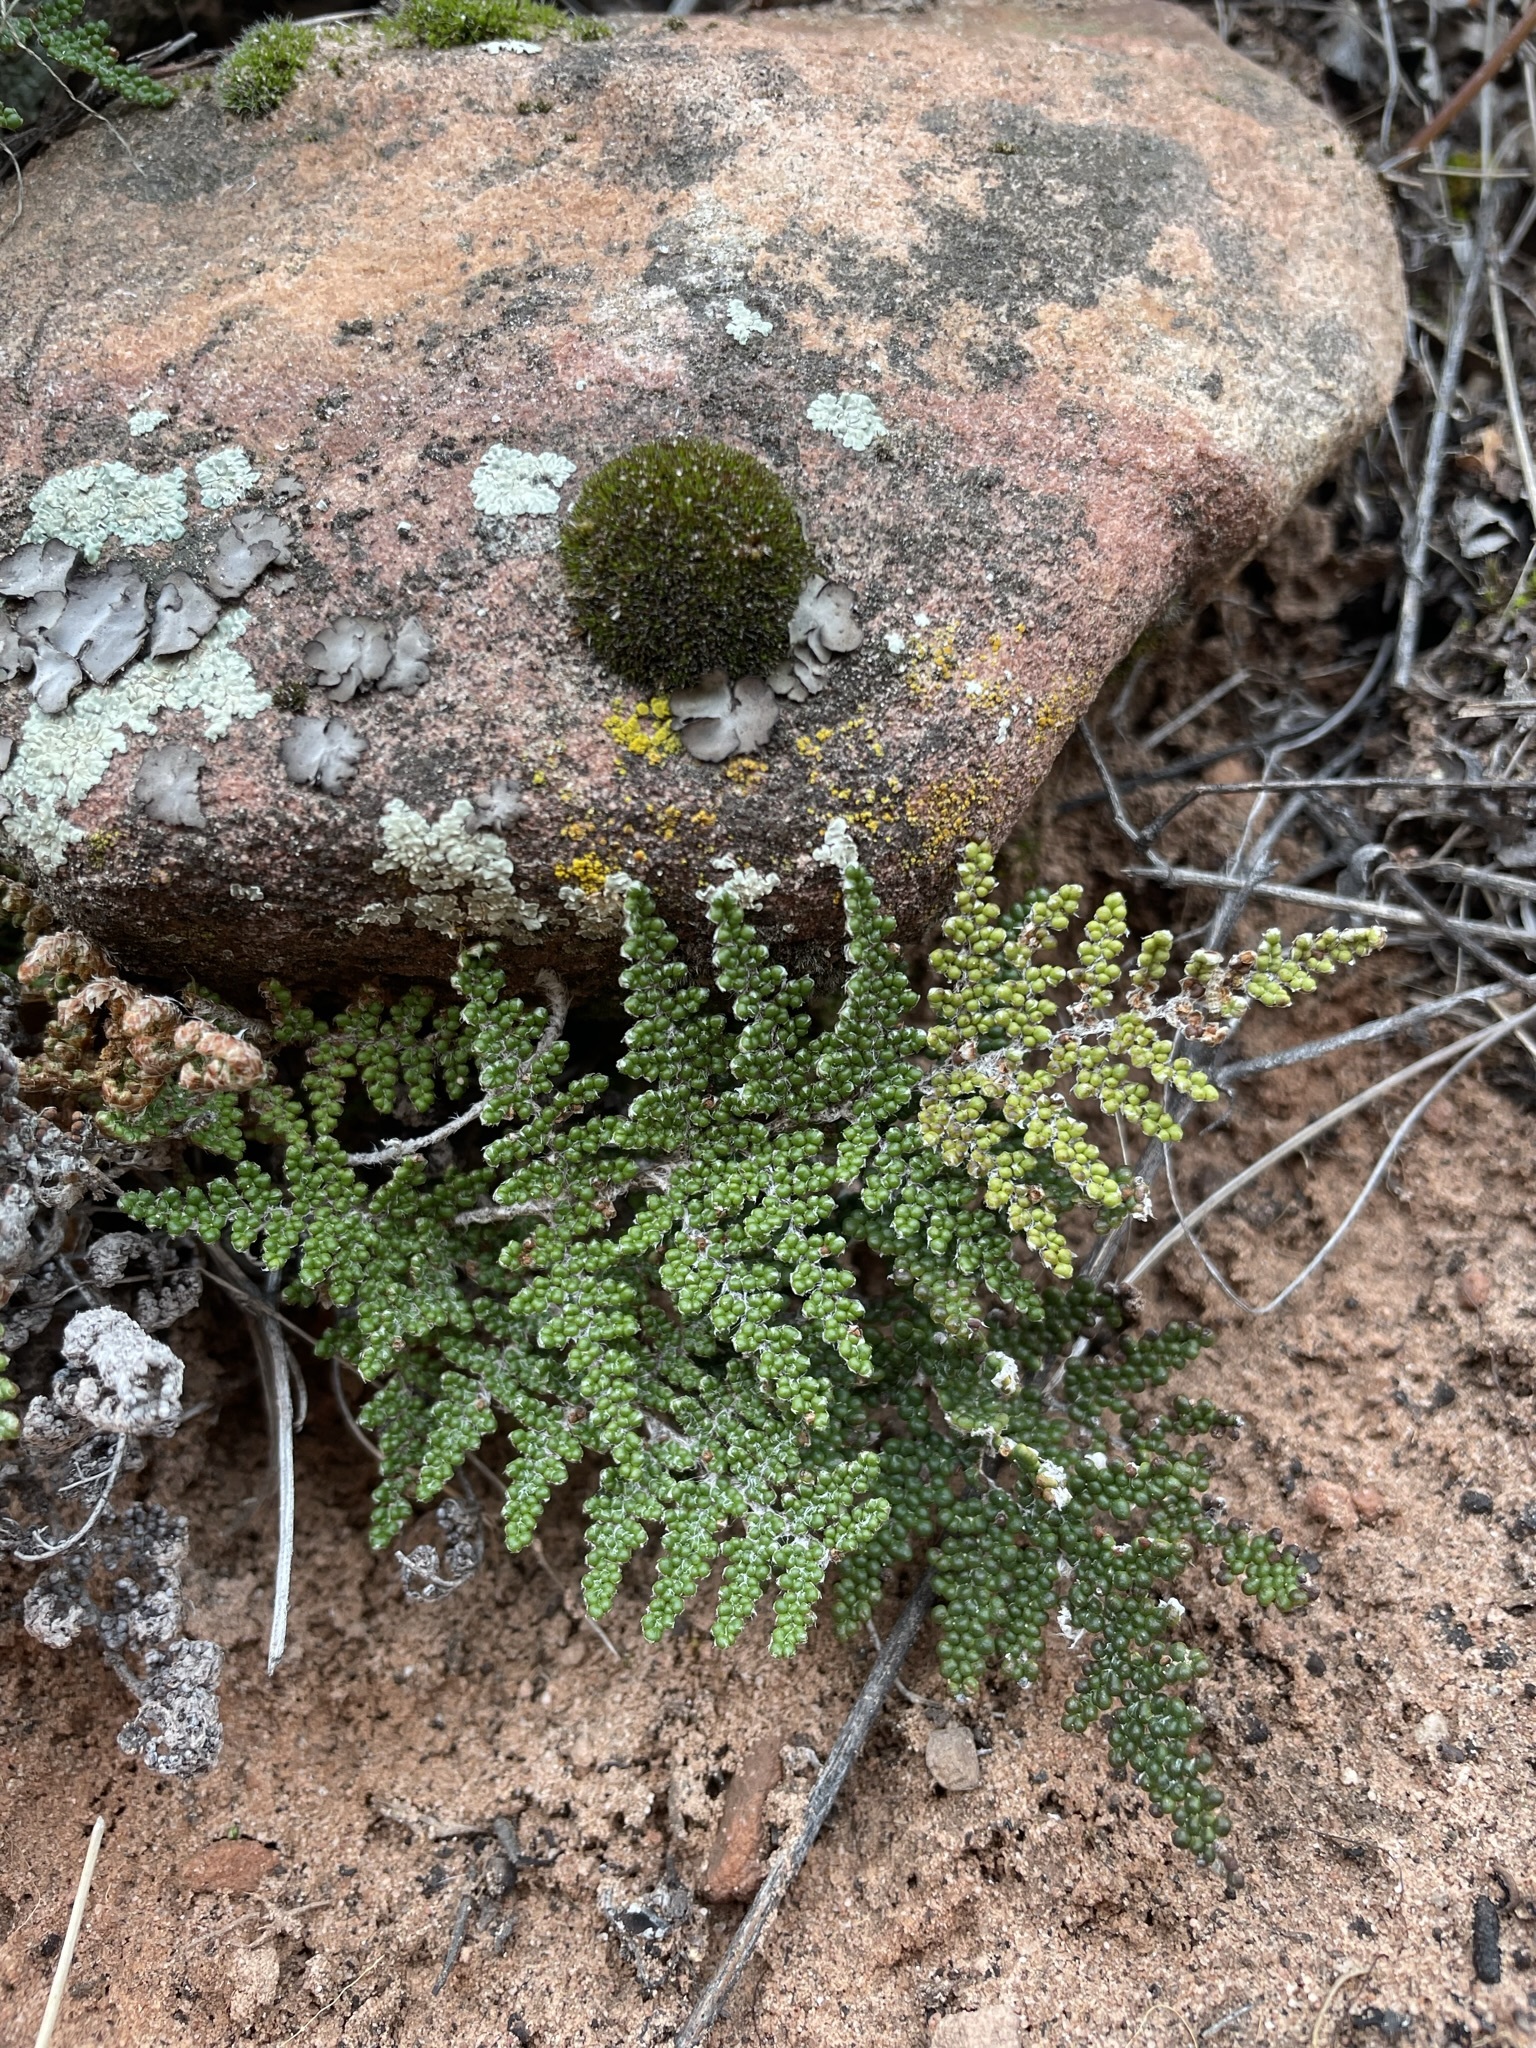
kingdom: Plantae
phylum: Tracheophyta
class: Polypodiopsida
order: Polypodiales
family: Pteridaceae
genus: Myriopteris
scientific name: Myriopteris covillei
